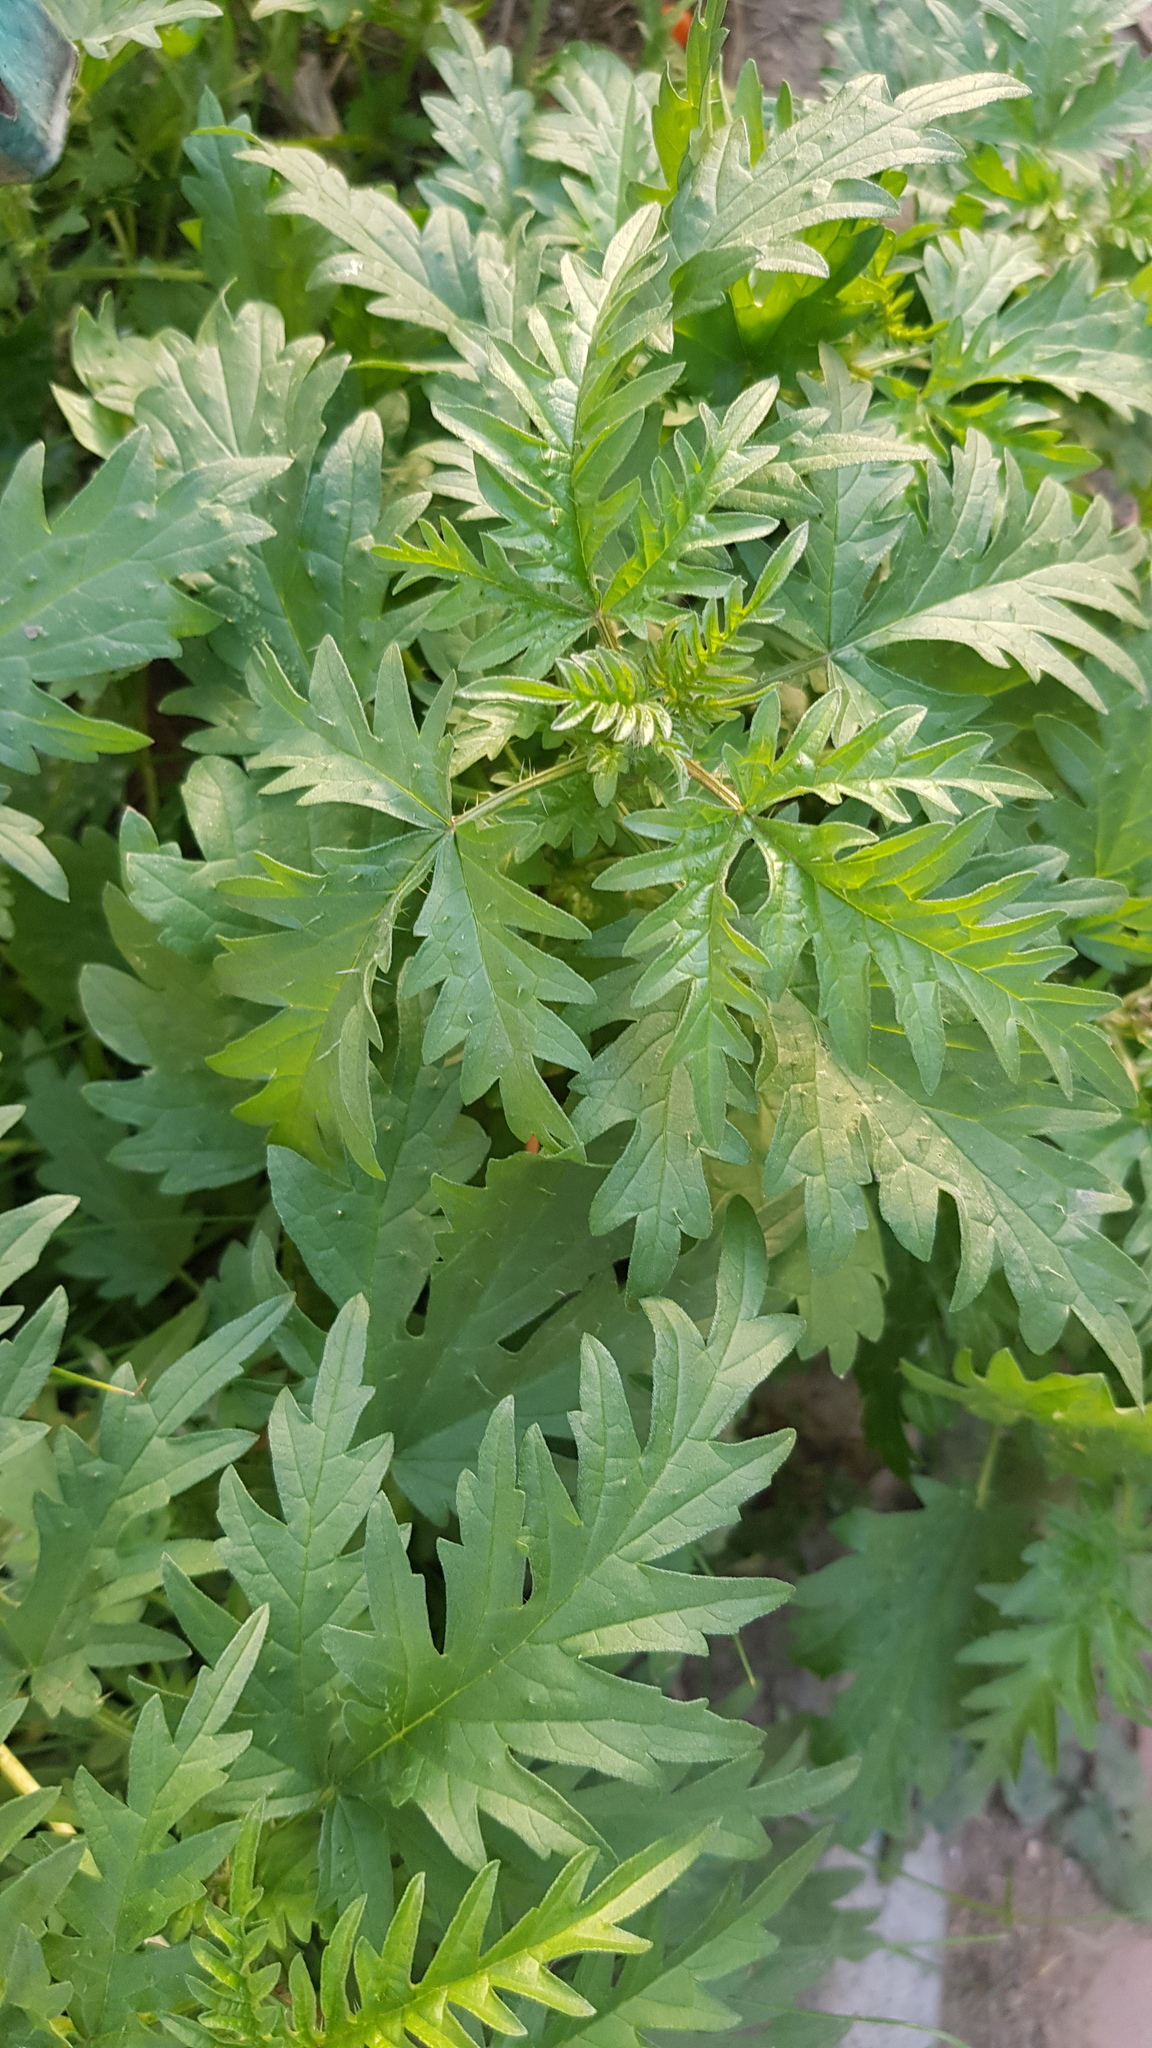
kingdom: Plantae
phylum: Tracheophyta
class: Magnoliopsida
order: Rosales
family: Urticaceae
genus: Urtica
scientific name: Urtica cannabina
